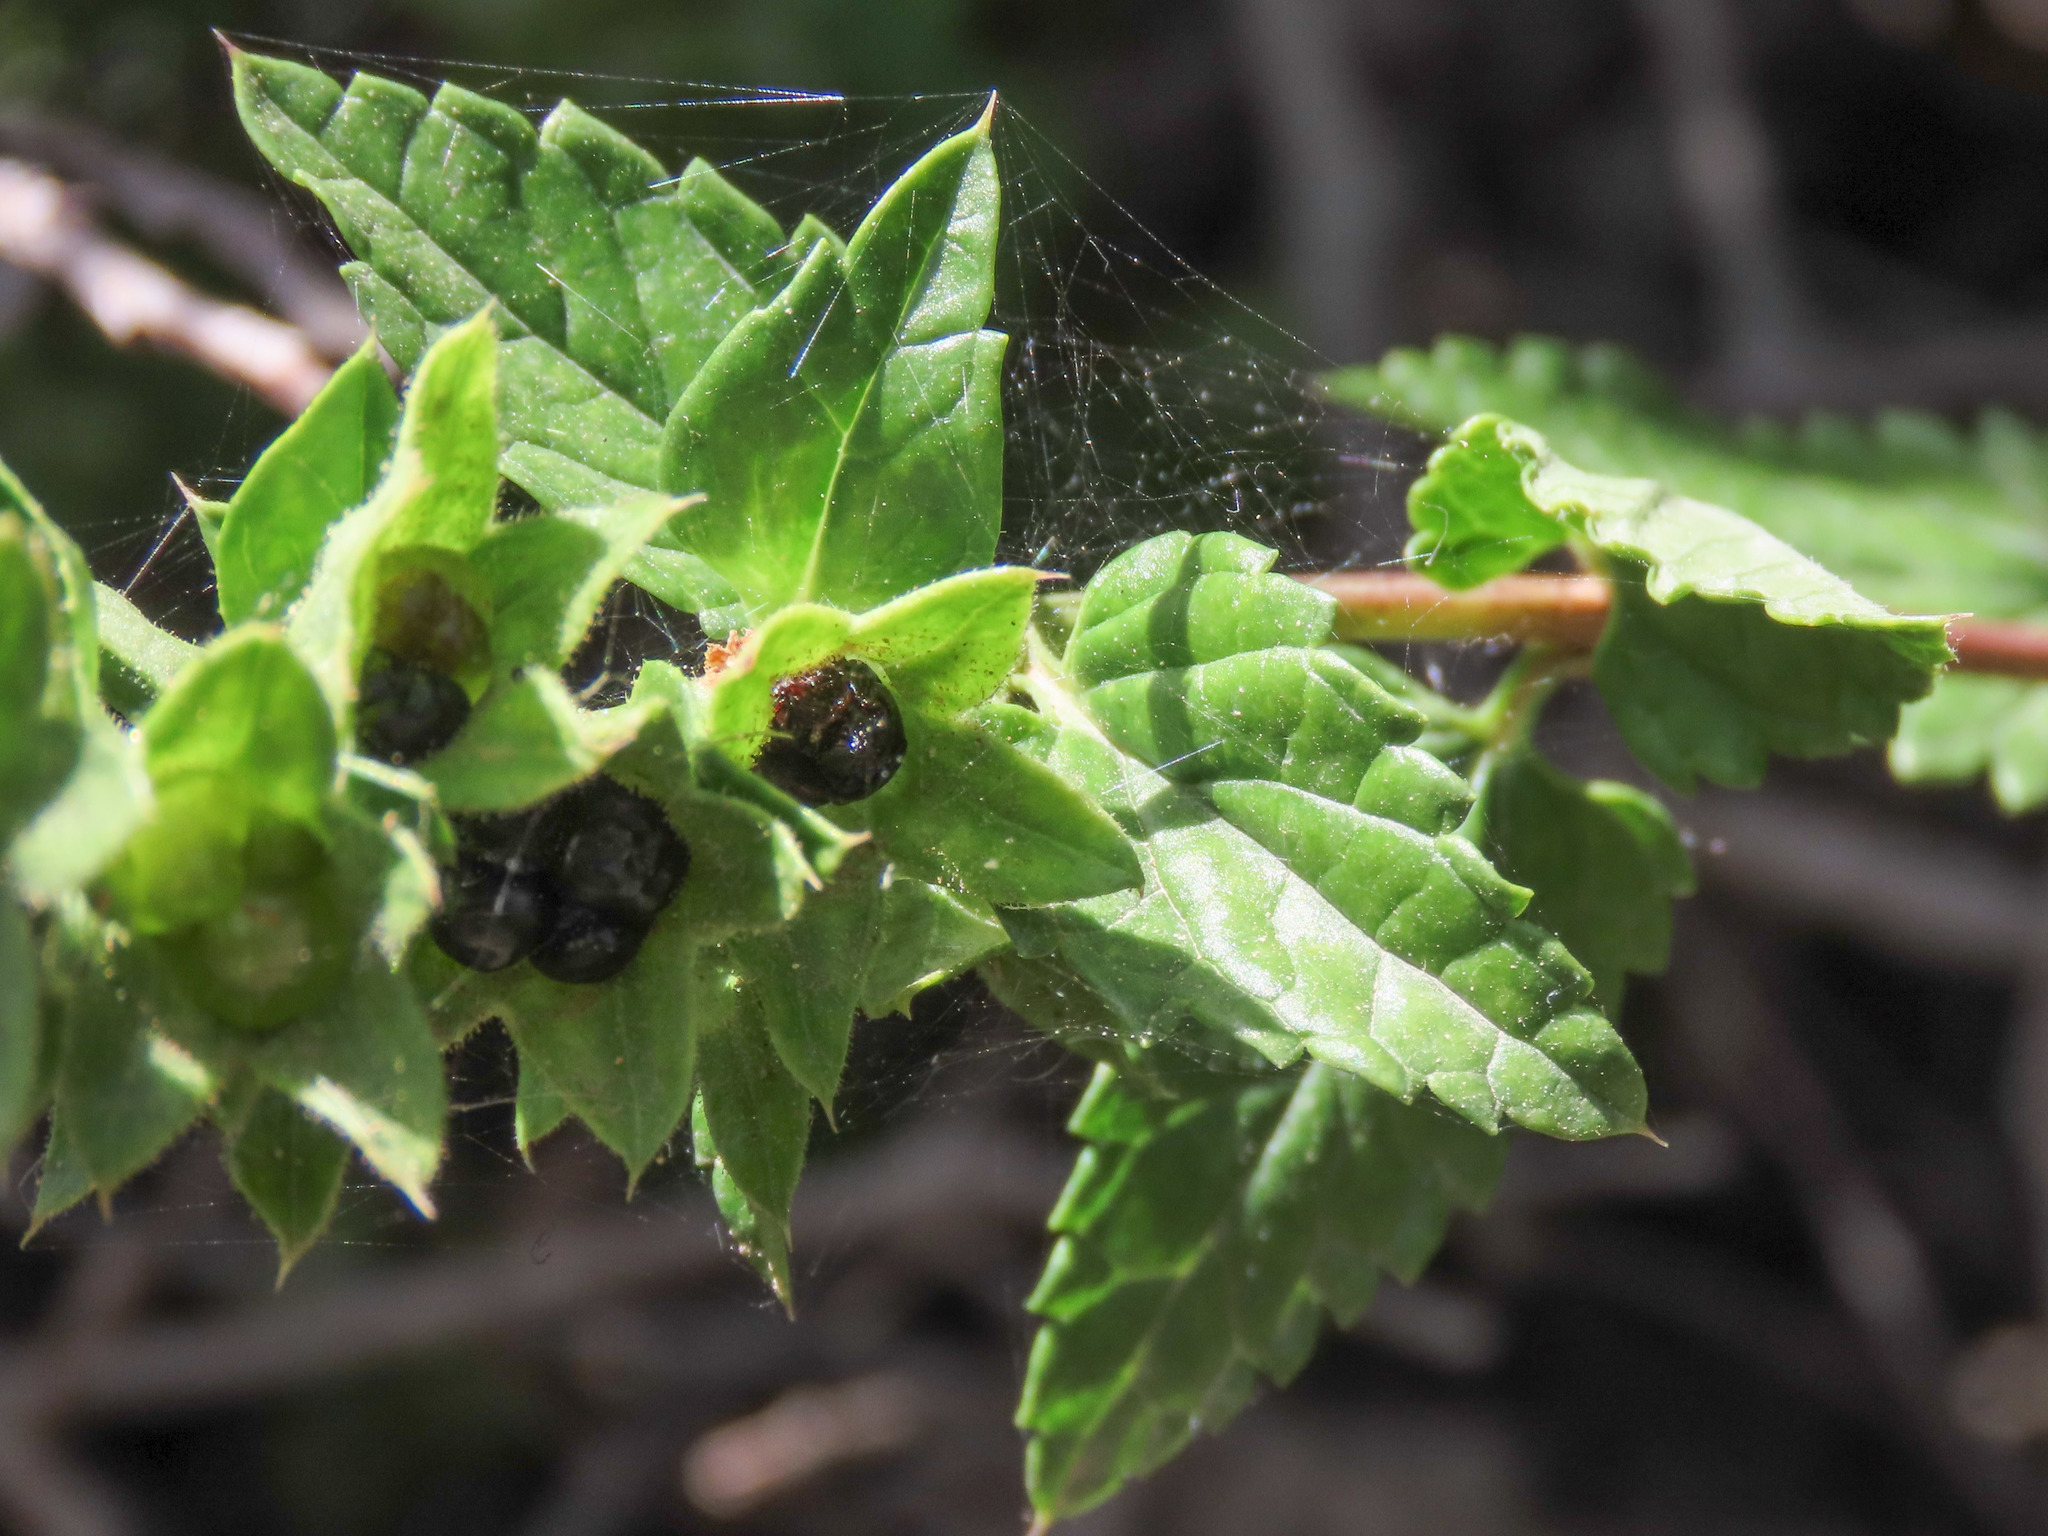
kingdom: Plantae
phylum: Tracheophyta
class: Magnoliopsida
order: Lamiales
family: Lamiaceae
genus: Prasium
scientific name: Prasium majus
